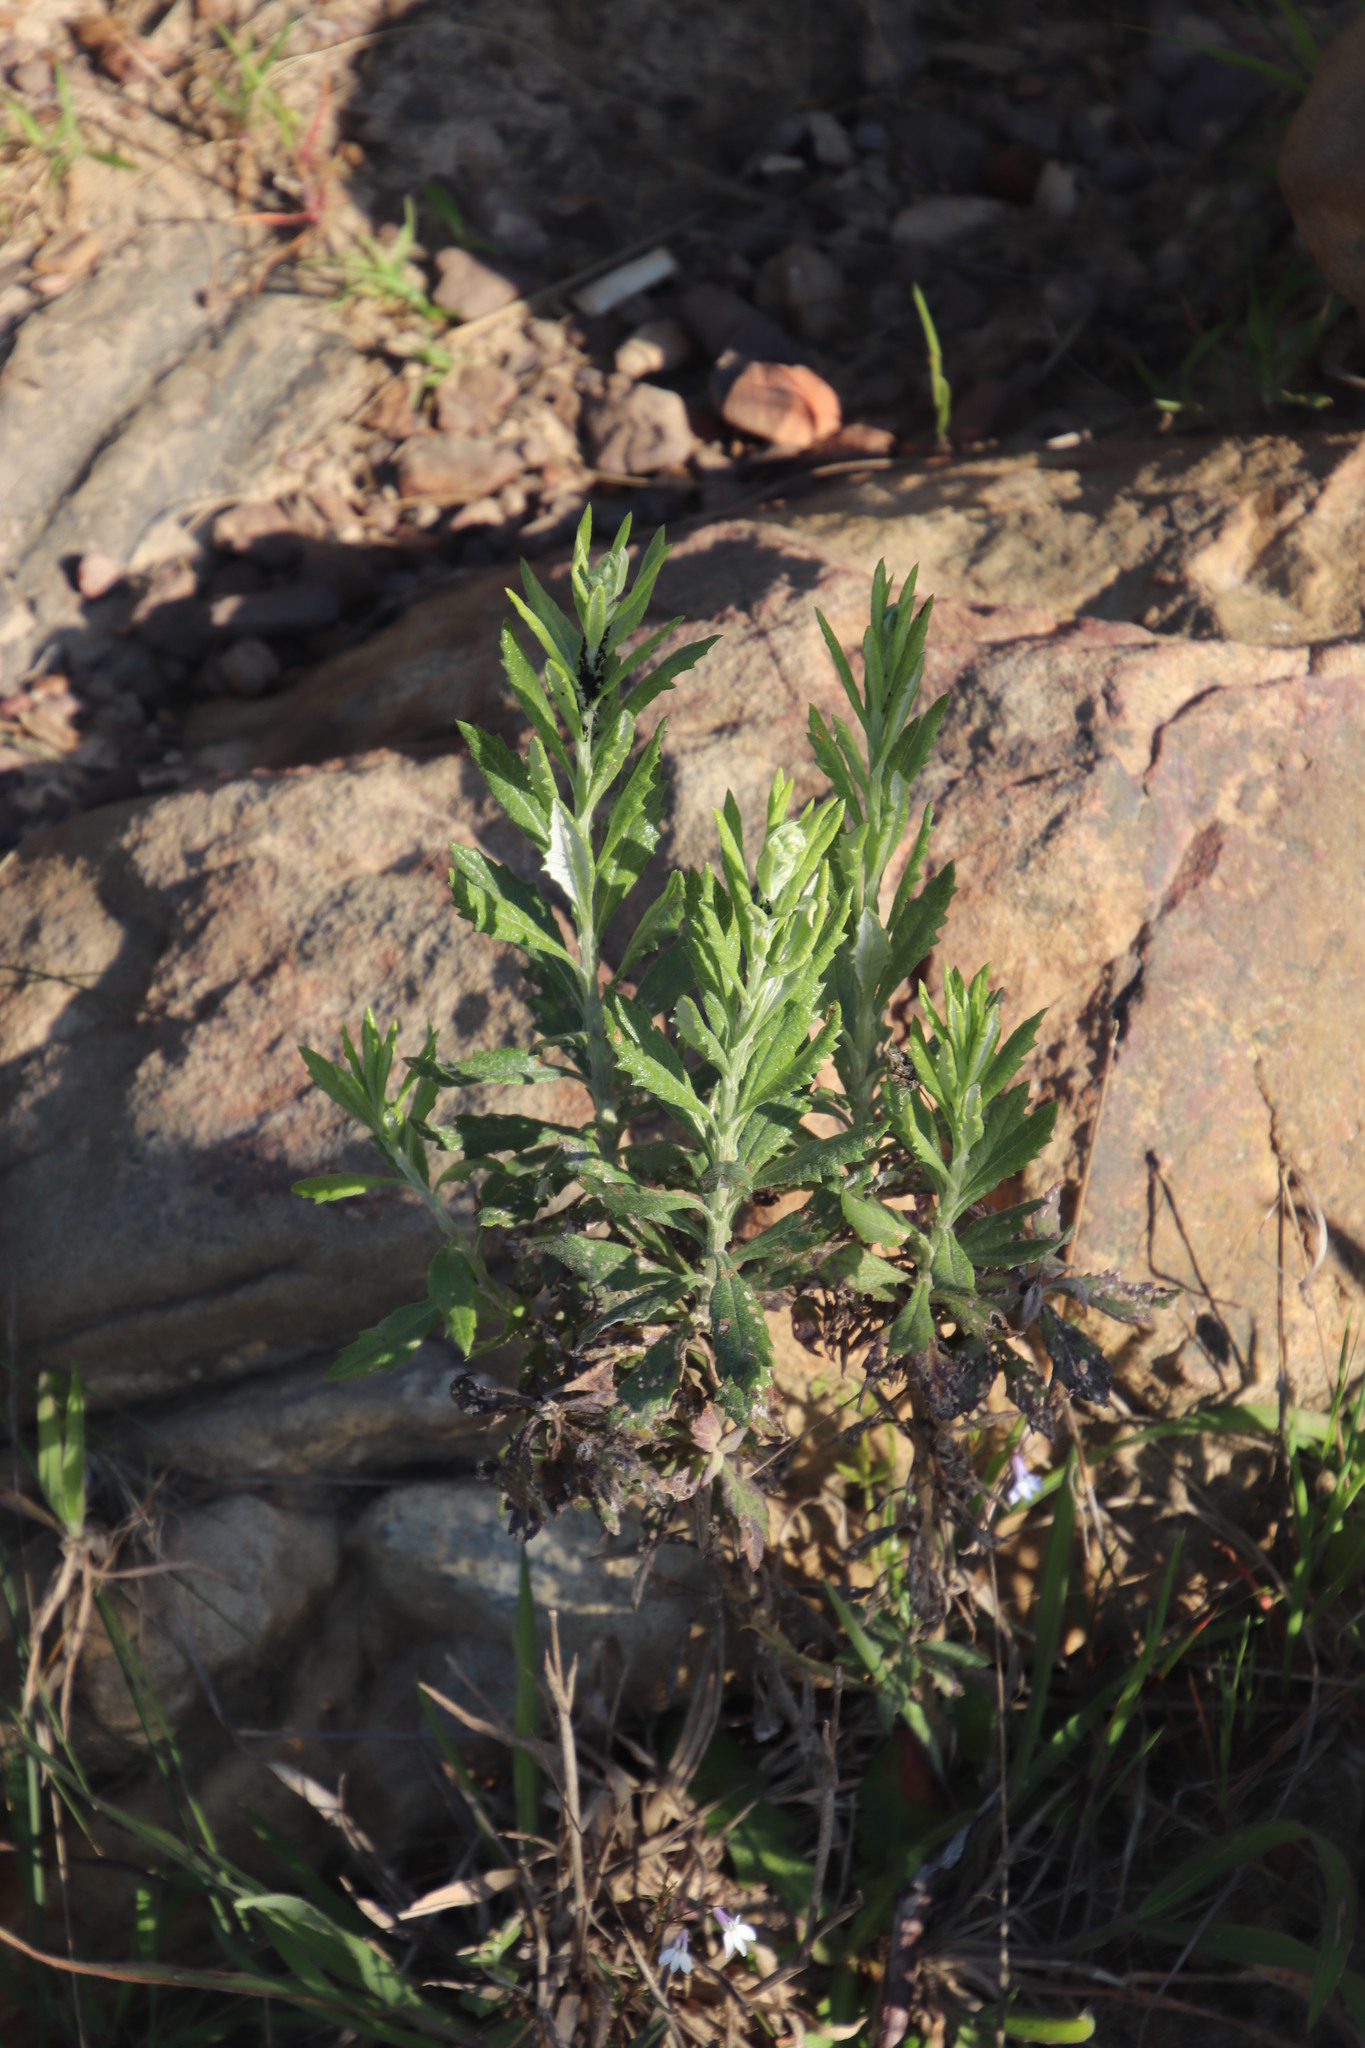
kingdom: Plantae
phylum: Tracheophyta
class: Magnoliopsida
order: Asterales
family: Asteraceae
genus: Senecio
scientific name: Senecio pterophorus
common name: Shoddy ragwort
